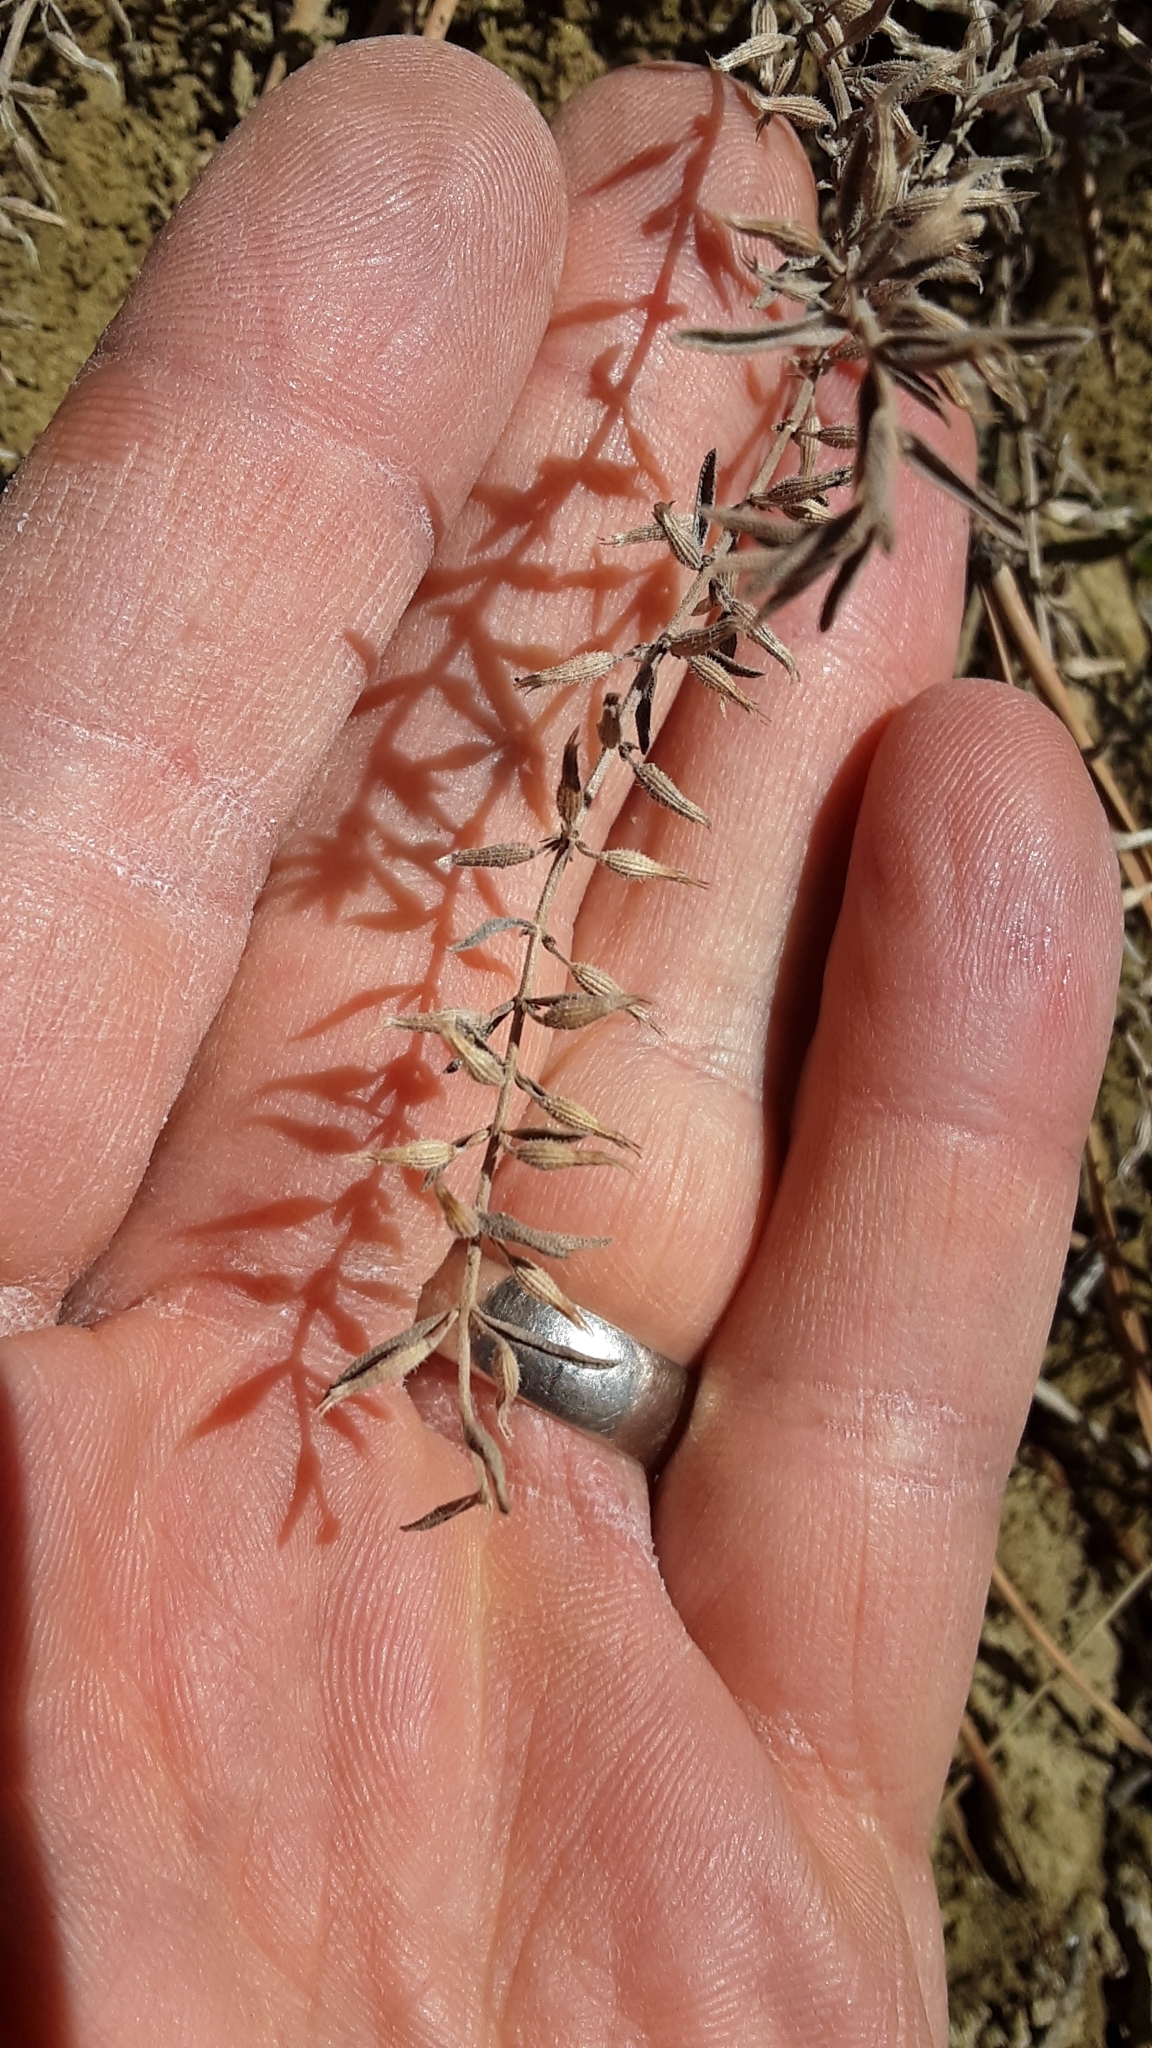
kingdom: Plantae
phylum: Tracheophyta
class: Magnoliopsida
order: Lamiales
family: Lamiaceae
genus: Hedeoma
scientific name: Hedeoma drummondii
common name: New mexico pennyroyal
